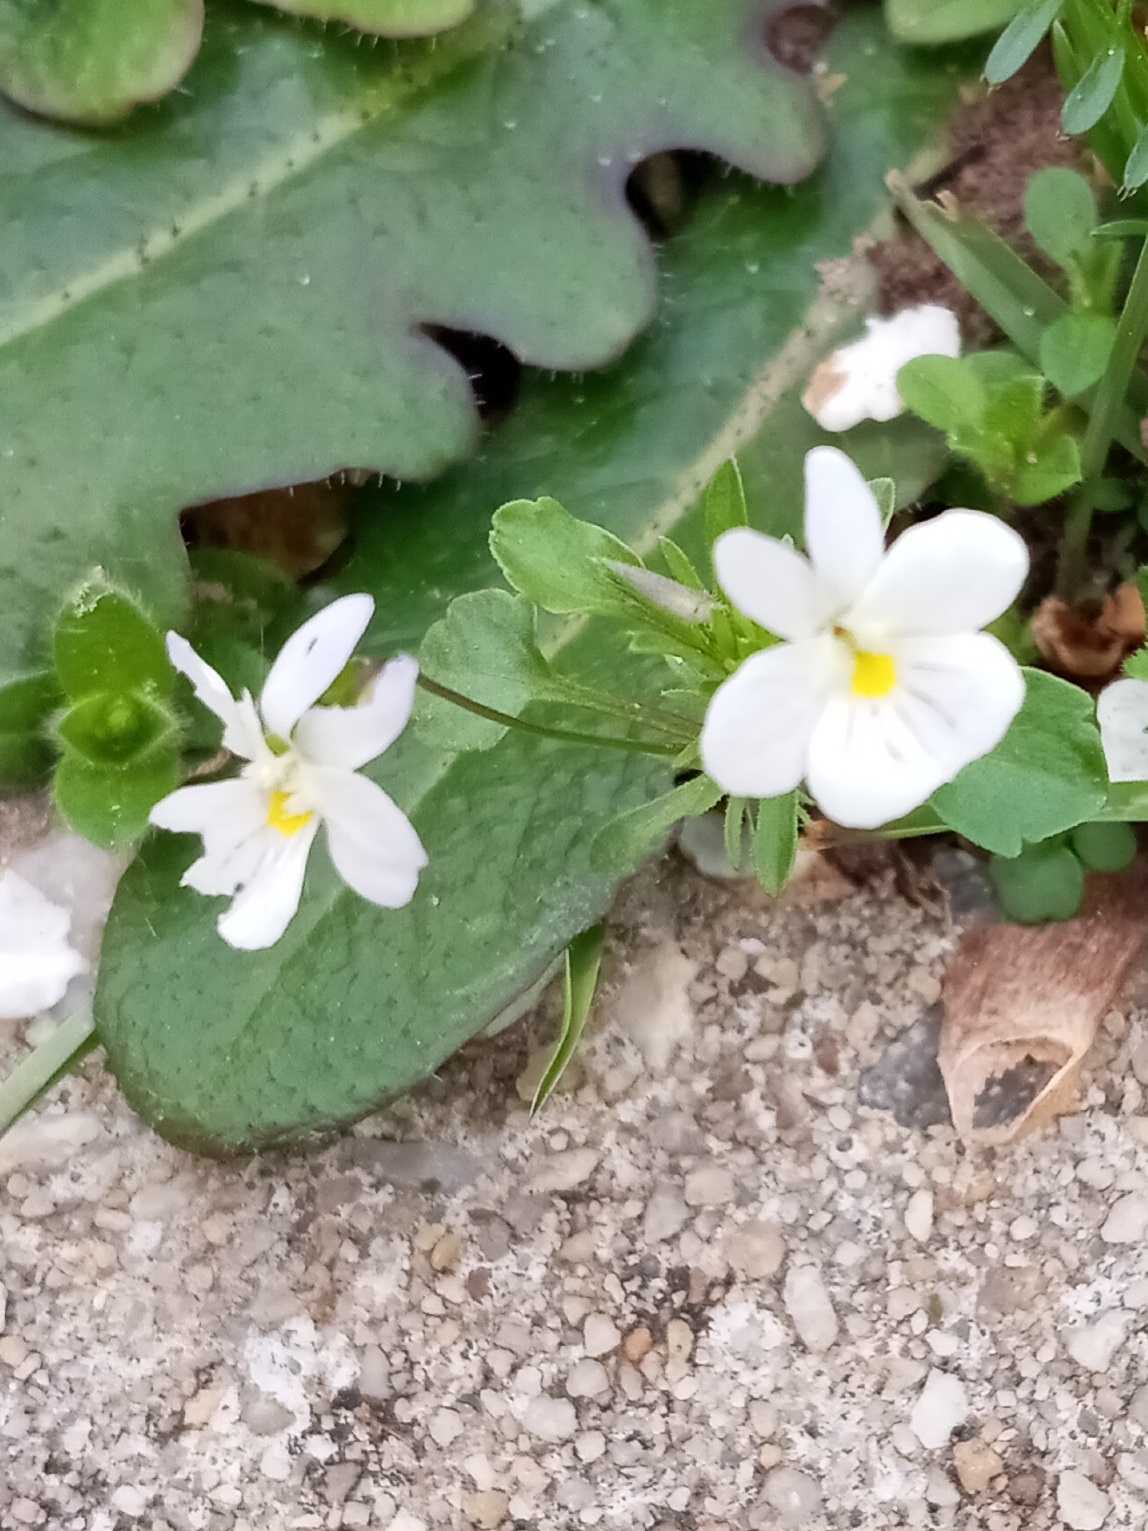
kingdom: Plantae
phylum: Tracheophyta
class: Magnoliopsida
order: Malpighiales
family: Violaceae
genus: Viola
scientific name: Viola rafinesquei
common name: American field pansy
